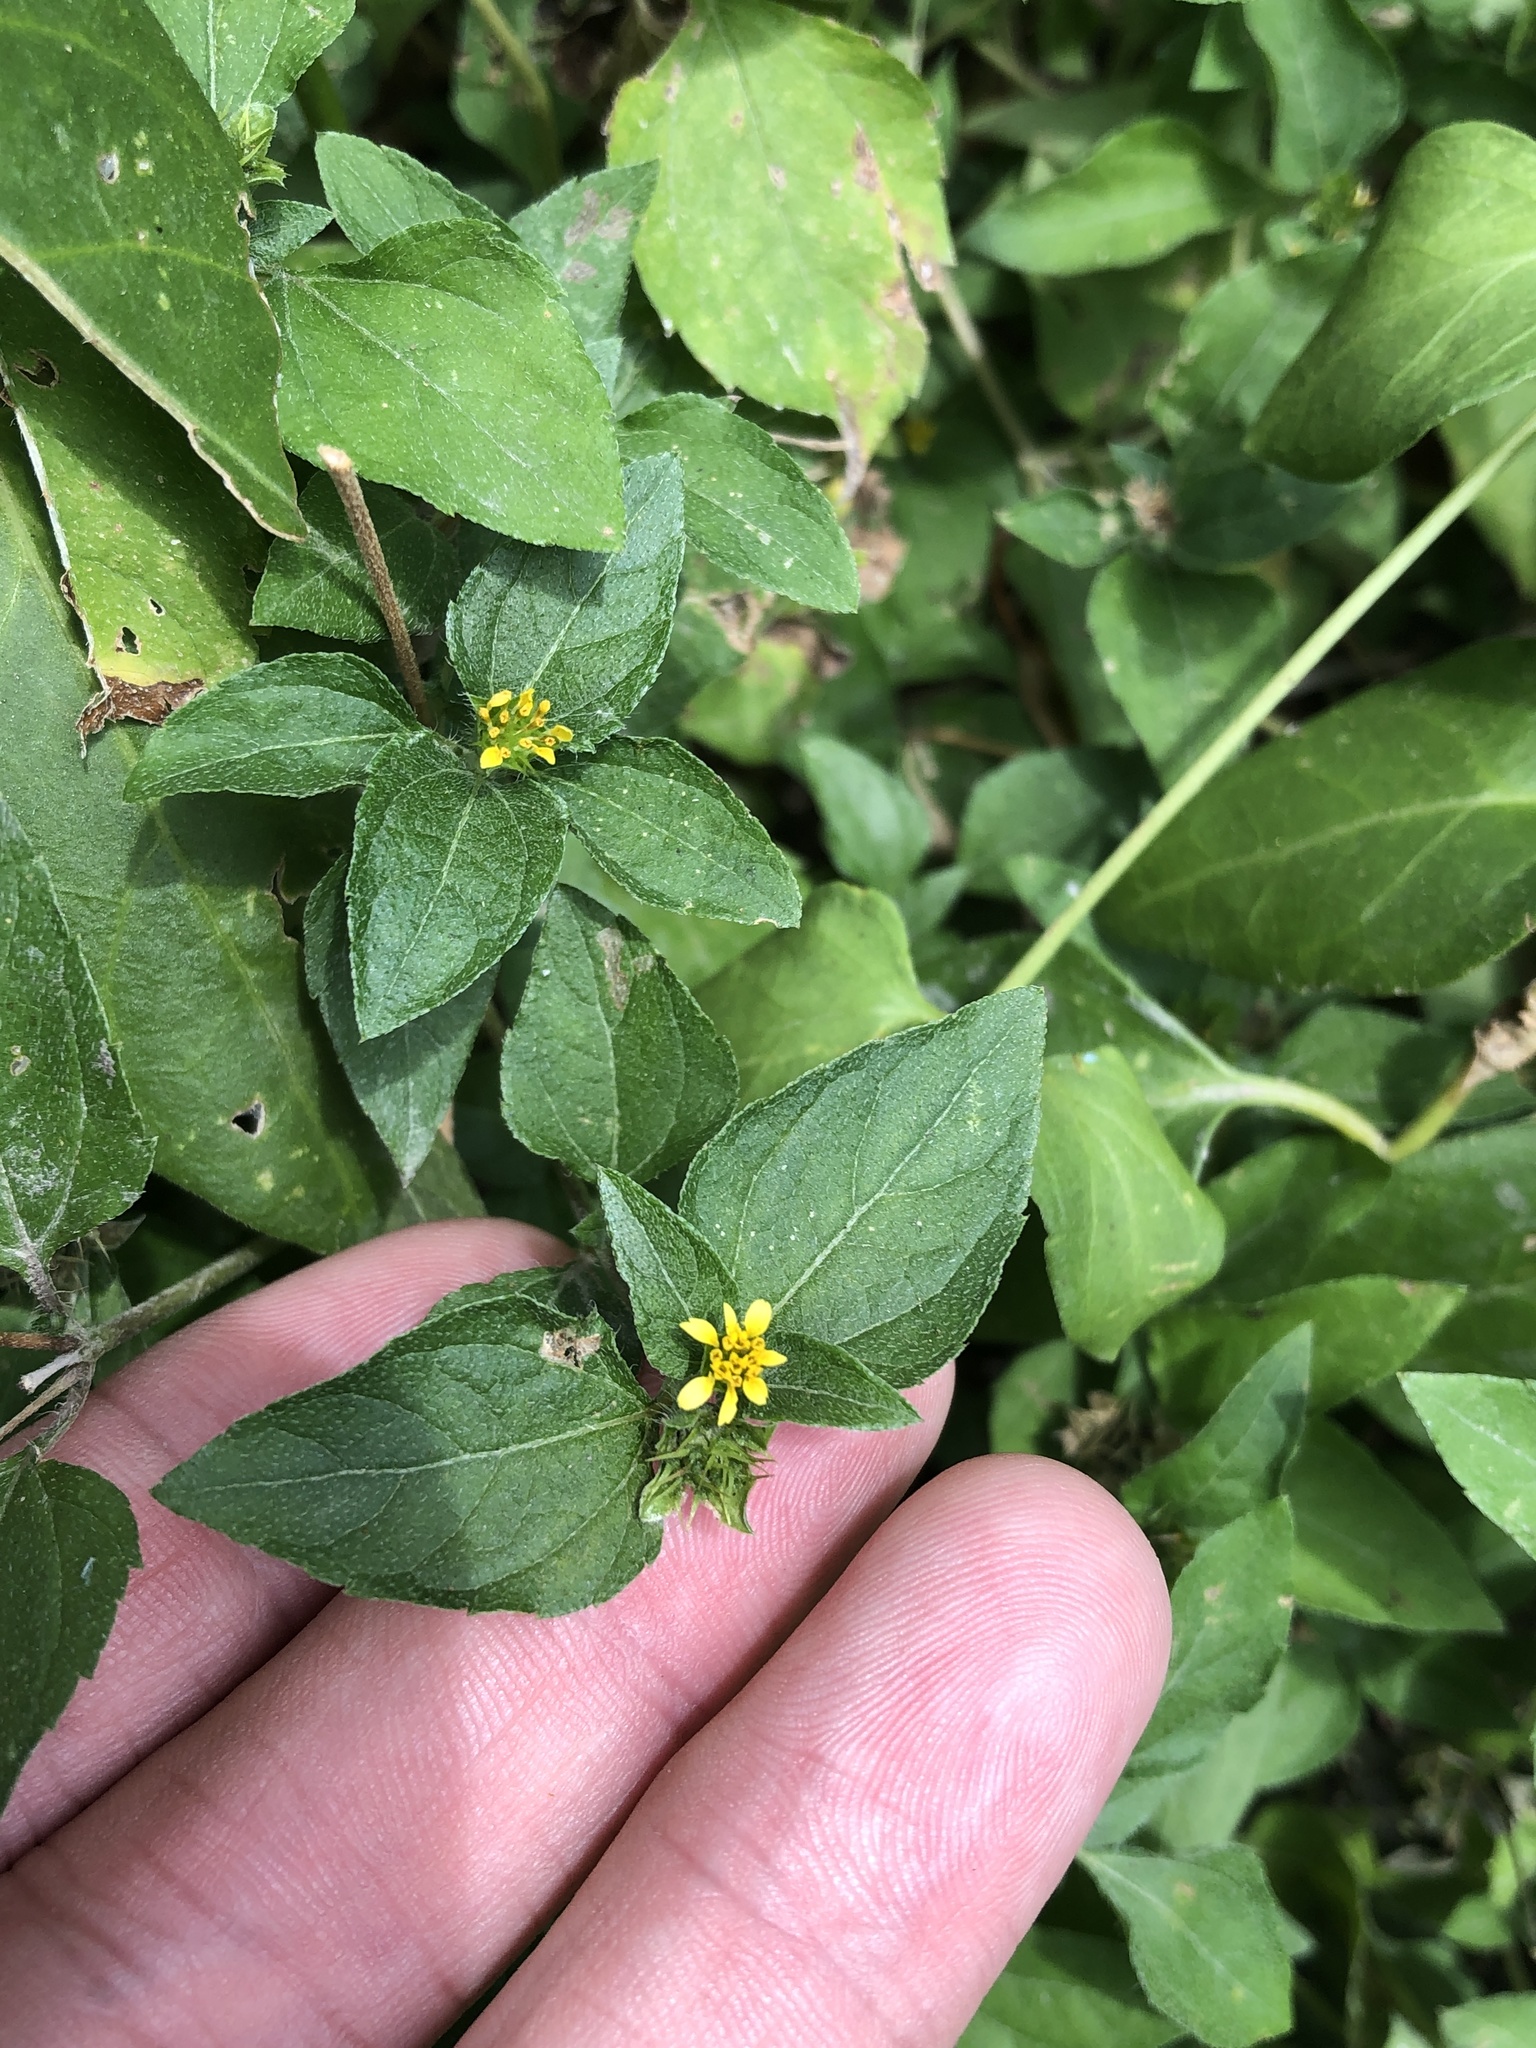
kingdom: Plantae
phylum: Tracheophyta
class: Magnoliopsida
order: Asterales
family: Asteraceae
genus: Calyptocarpus
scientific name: Calyptocarpus vialis
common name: Straggler daisy
